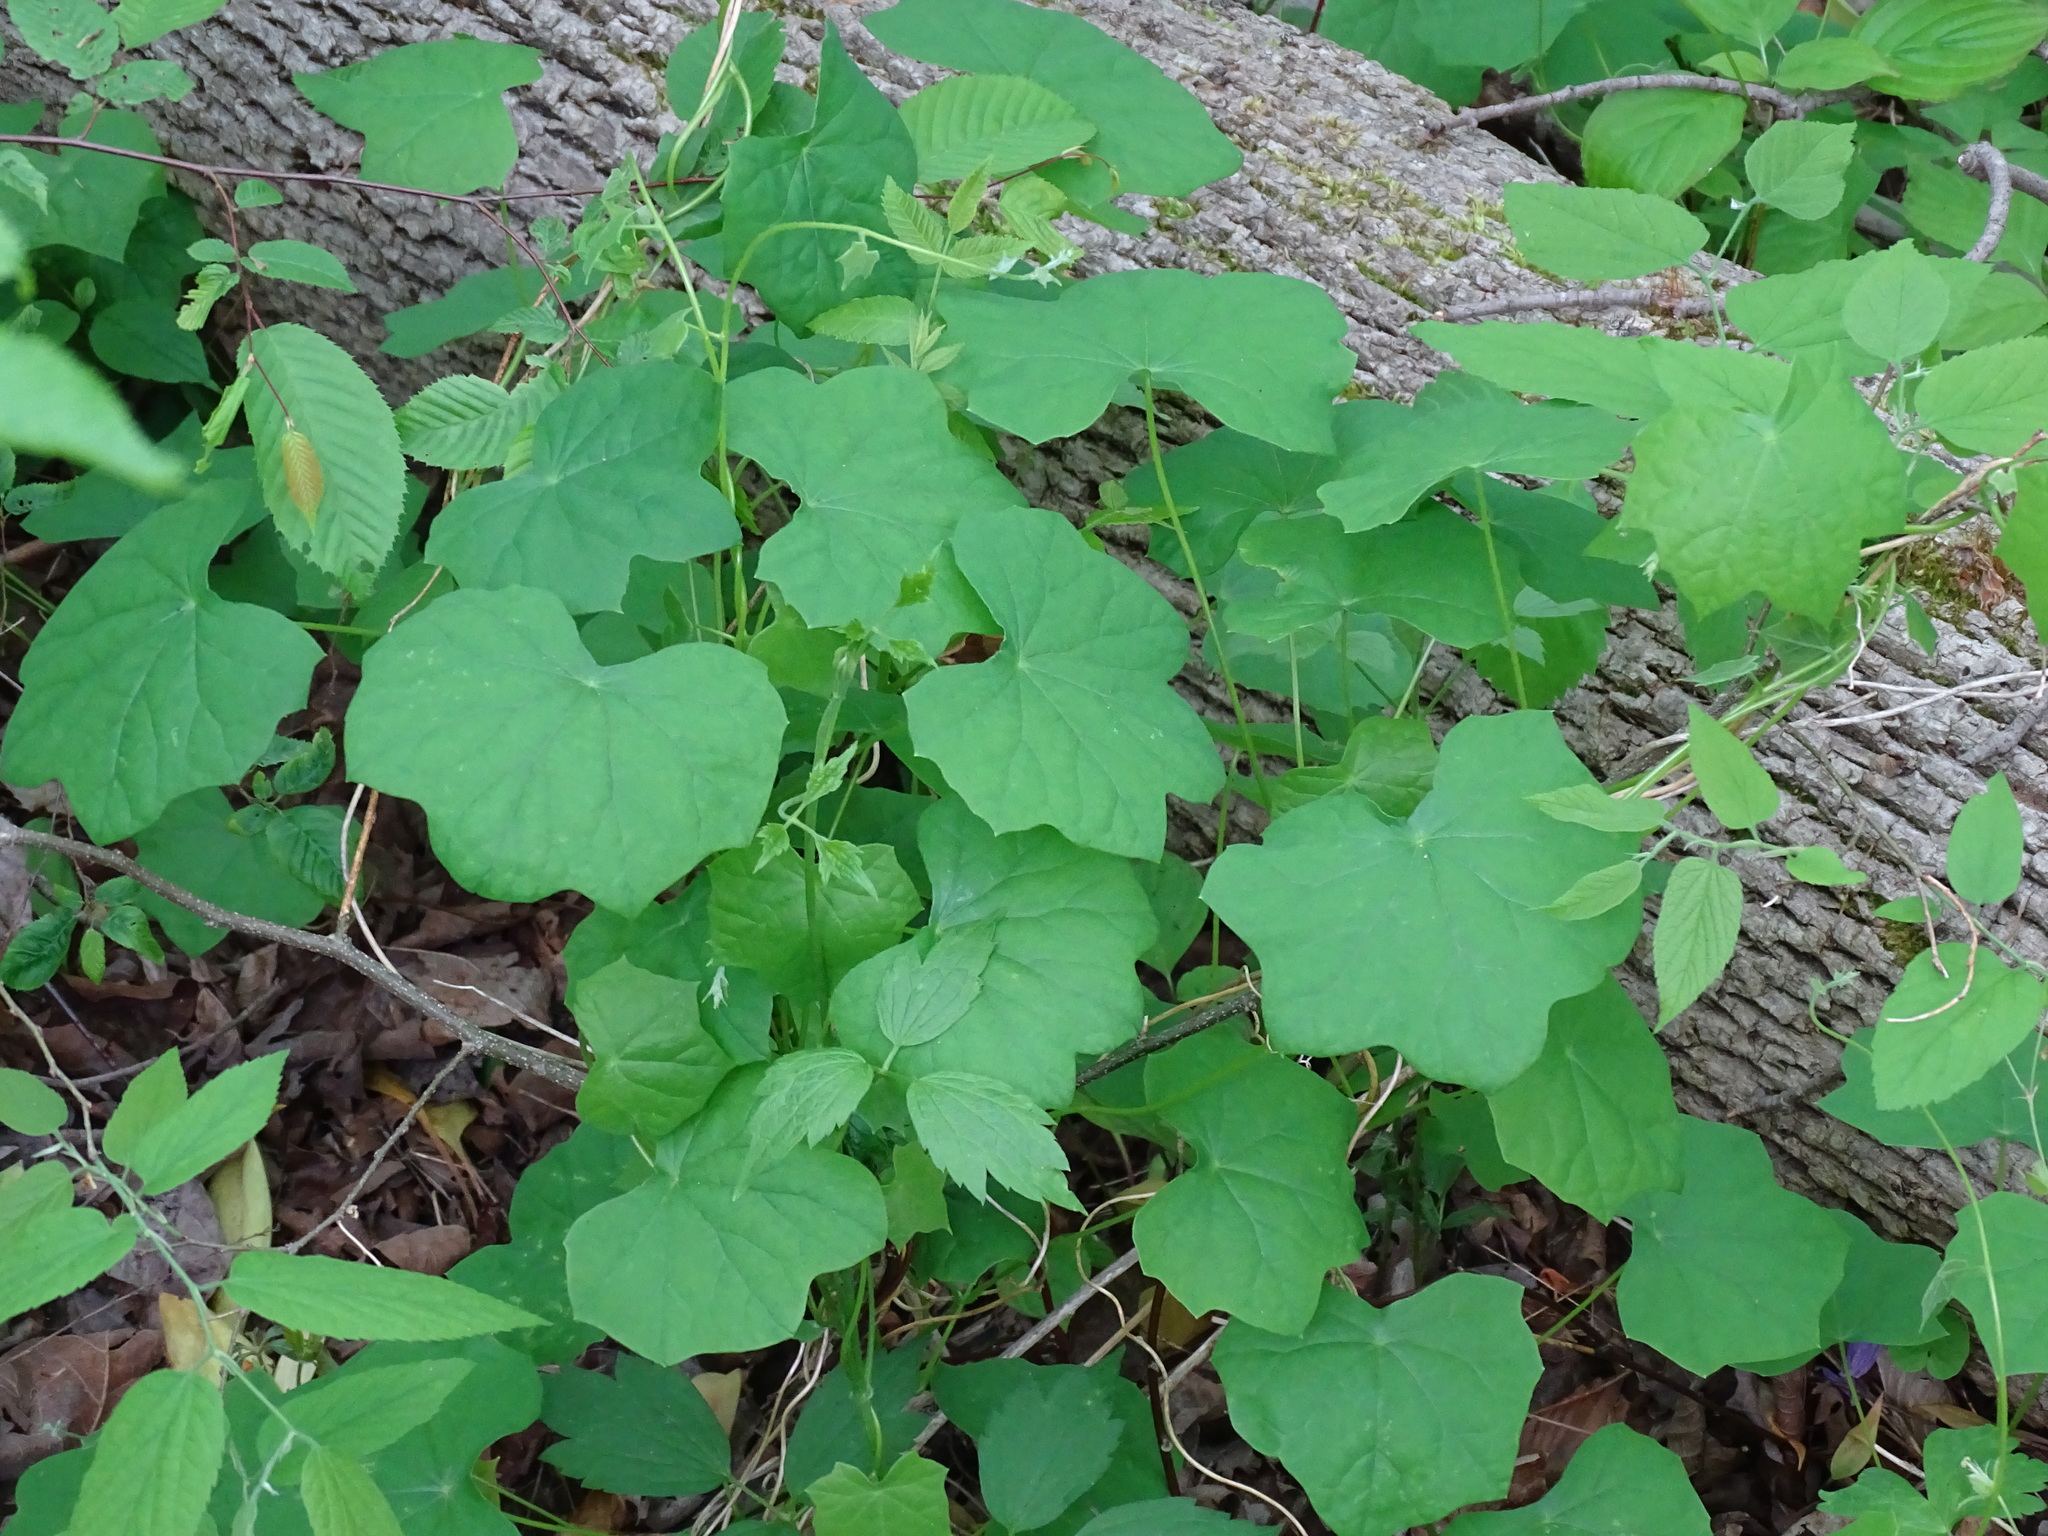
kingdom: Plantae
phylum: Tracheophyta
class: Magnoliopsida
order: Ranunculales
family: Menispermaceae
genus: Menispermum
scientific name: Menispermum canadense
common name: Moonseed
